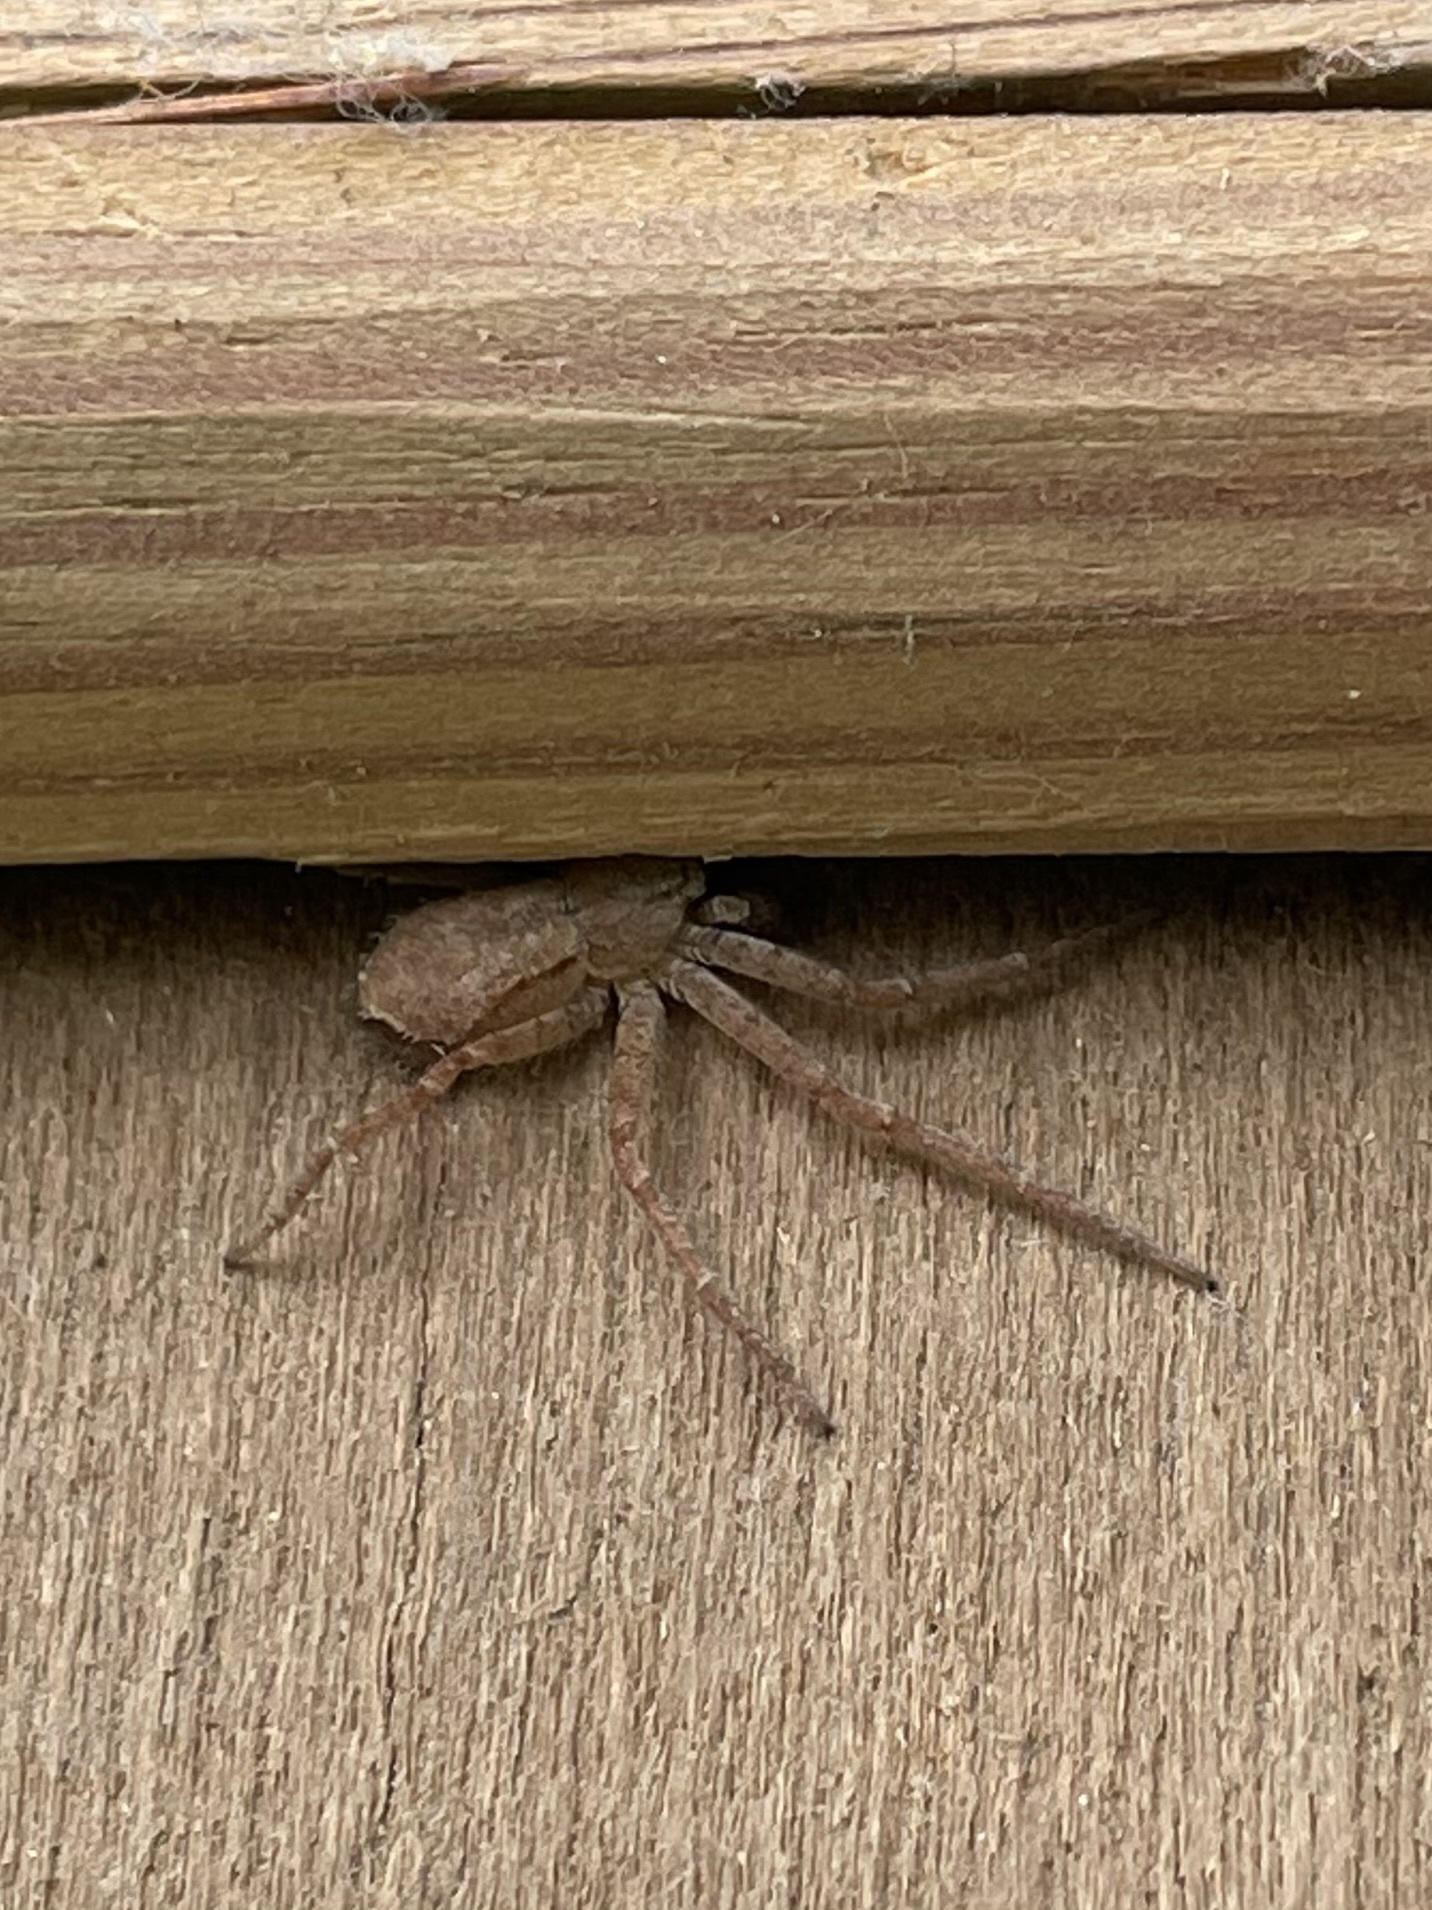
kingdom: Animalia
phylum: Arthropoda
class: Arachnida
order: Araneae
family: Philodromidae
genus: Philodromus
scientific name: Philodromus fuscomarginatus
